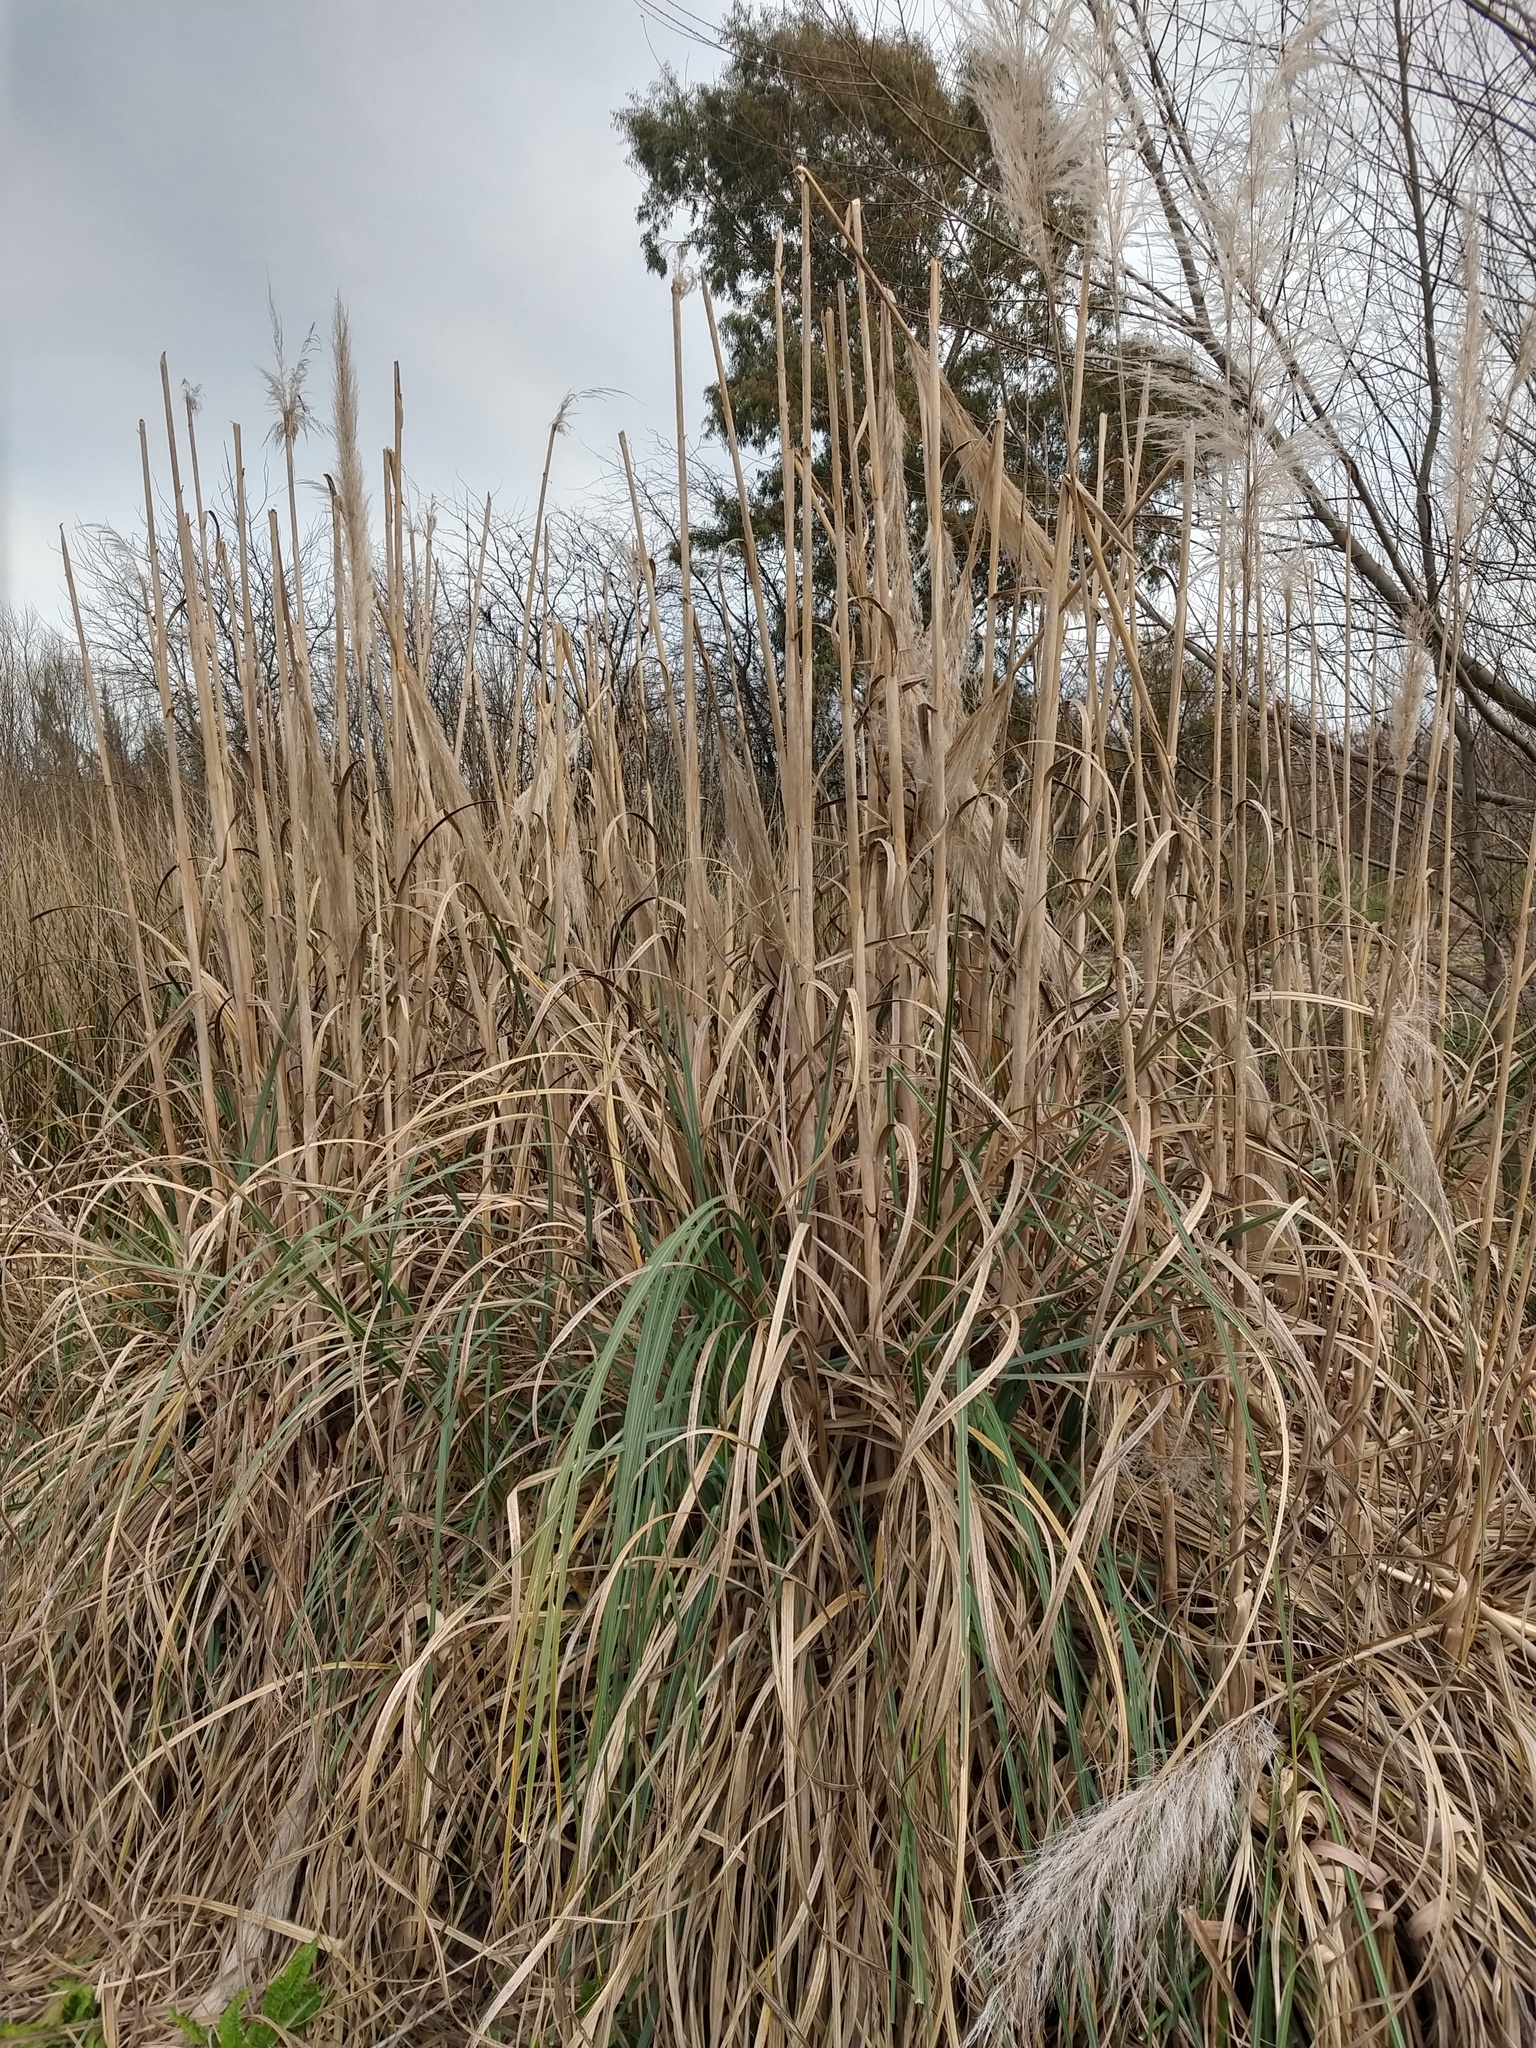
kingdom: Plantae
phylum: Tracheophyta
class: Liliopsida
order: Poales
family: Poaceae
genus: Cortaderia
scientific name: Cortaderia selloana
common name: Uruguayan pampas grass
